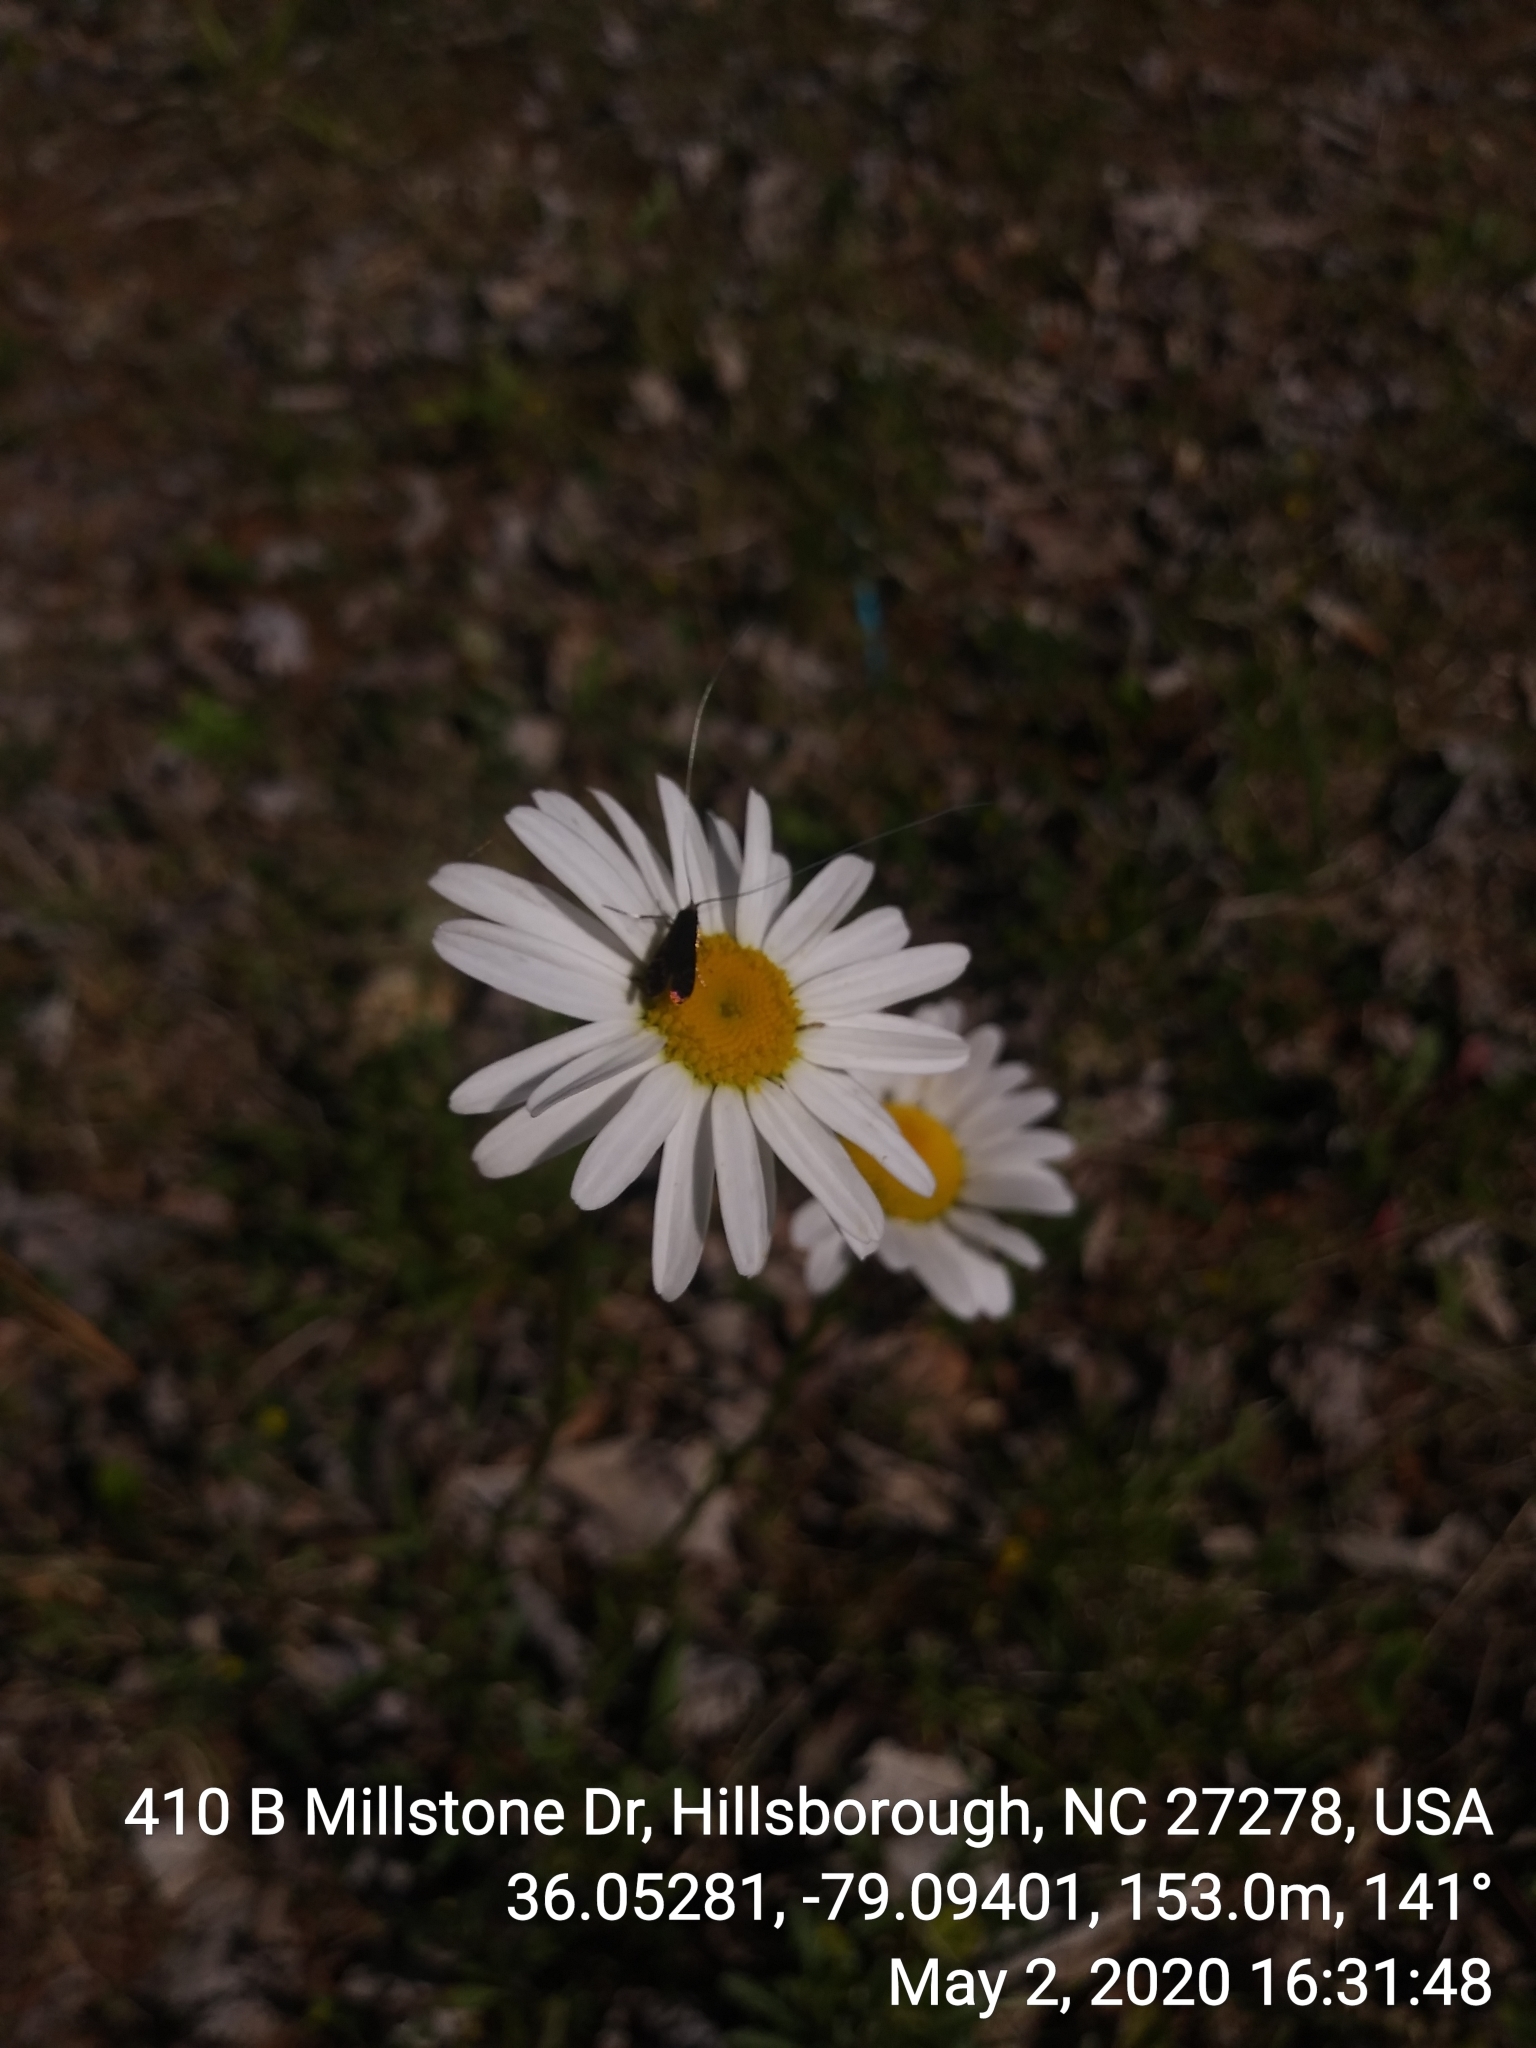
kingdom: Plantae
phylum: Tracheophyta
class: Magnoliopsida
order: Asterales
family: Asteraceae
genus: Leucanthemum
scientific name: Leucanthemum vulgare
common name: Oxeye daisy
